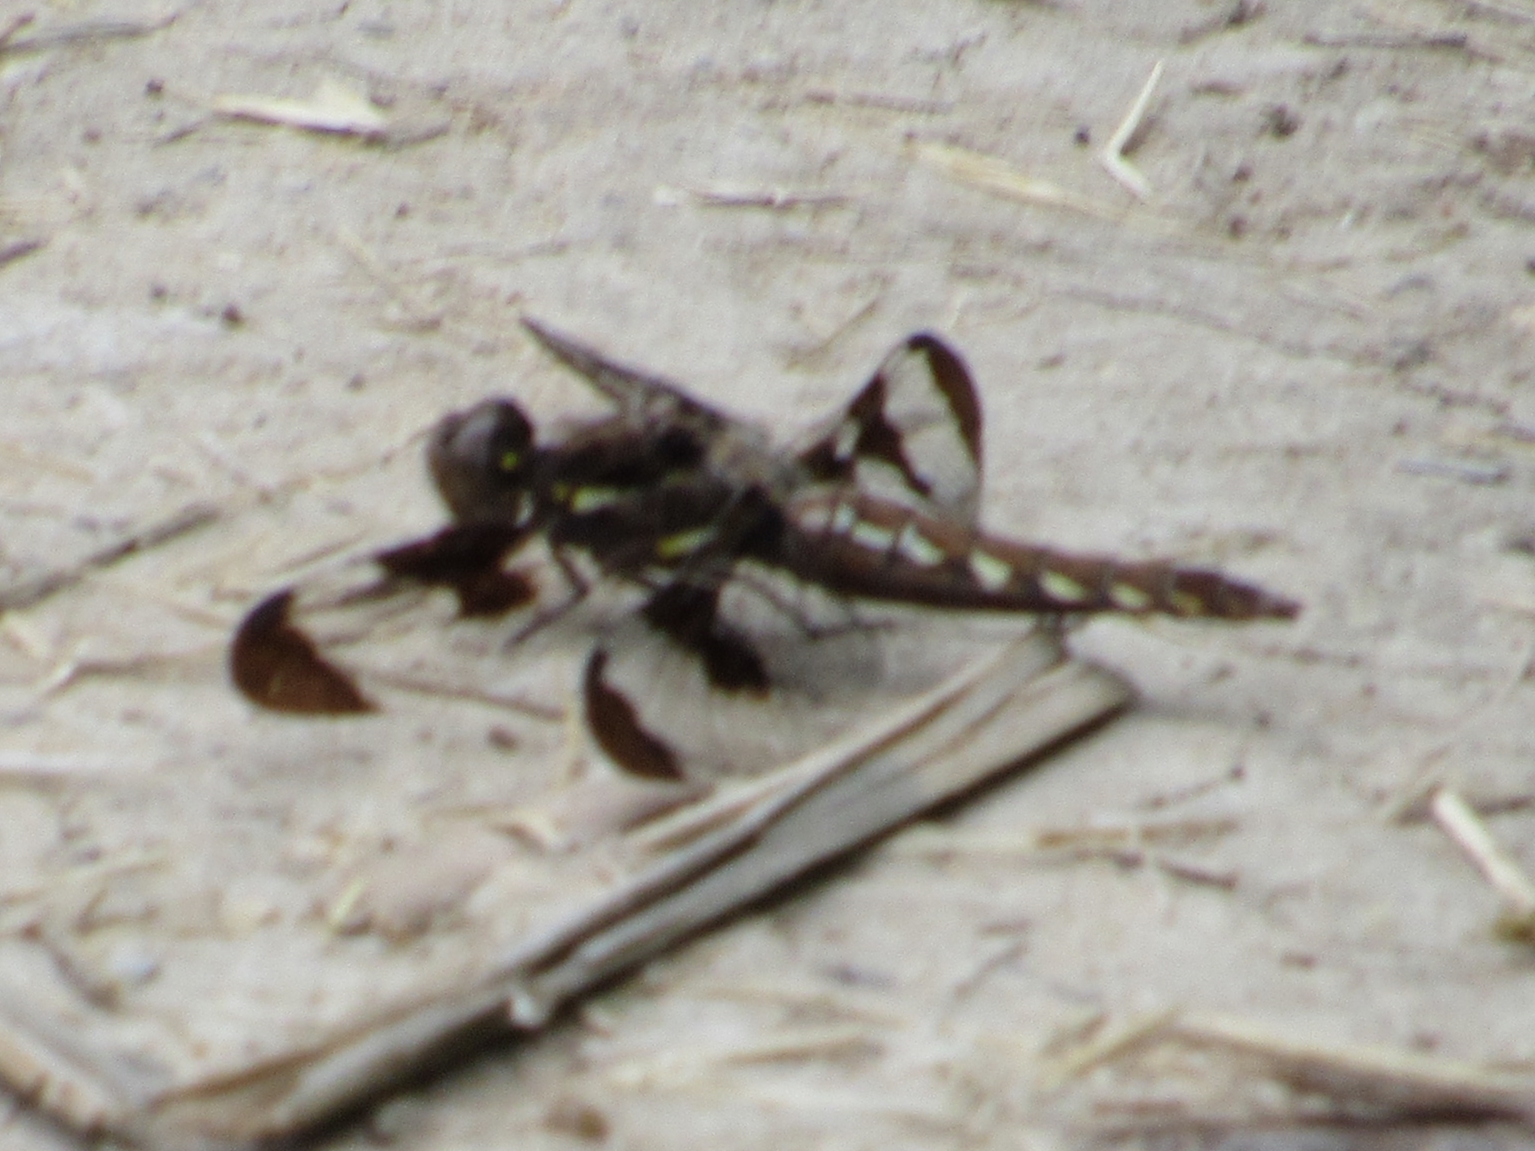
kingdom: Animalia
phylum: Arthropoda
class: Insecta
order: Odonata
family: Libellulidae
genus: Plathemis
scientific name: Plathemis lydia
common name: Common whitetail
